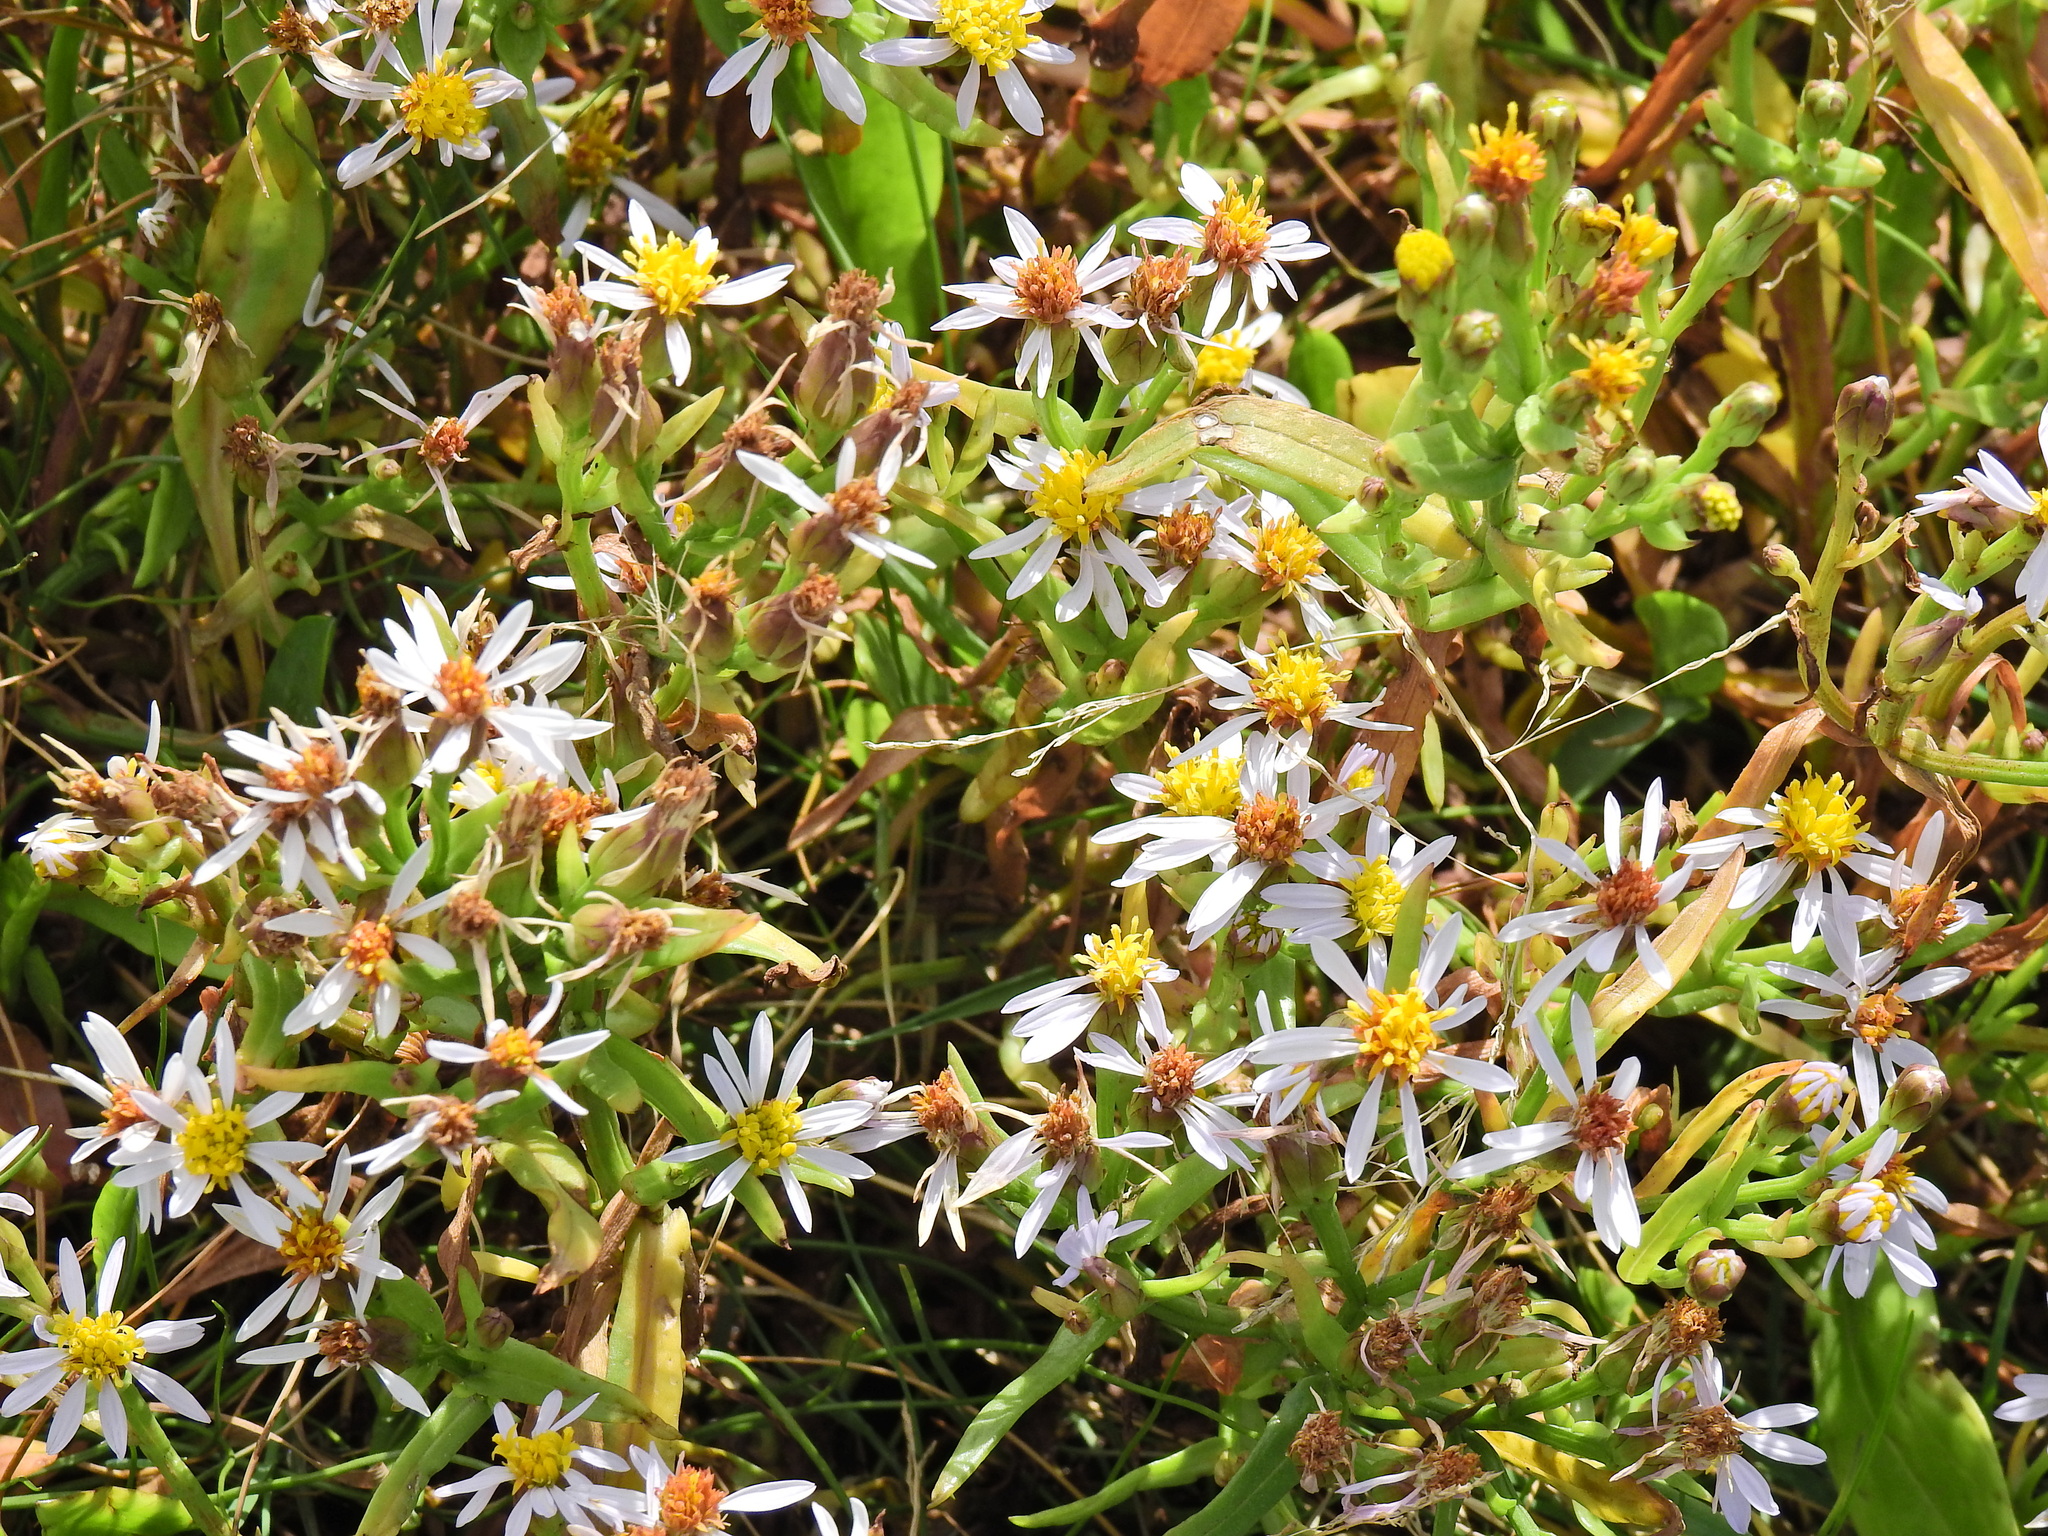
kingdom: Plantae
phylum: Tracheophyta
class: Magnoliopsida
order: Asterales
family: Asteraceae
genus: Tripolium
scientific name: Tripolium pannonicum
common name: Sea aster
